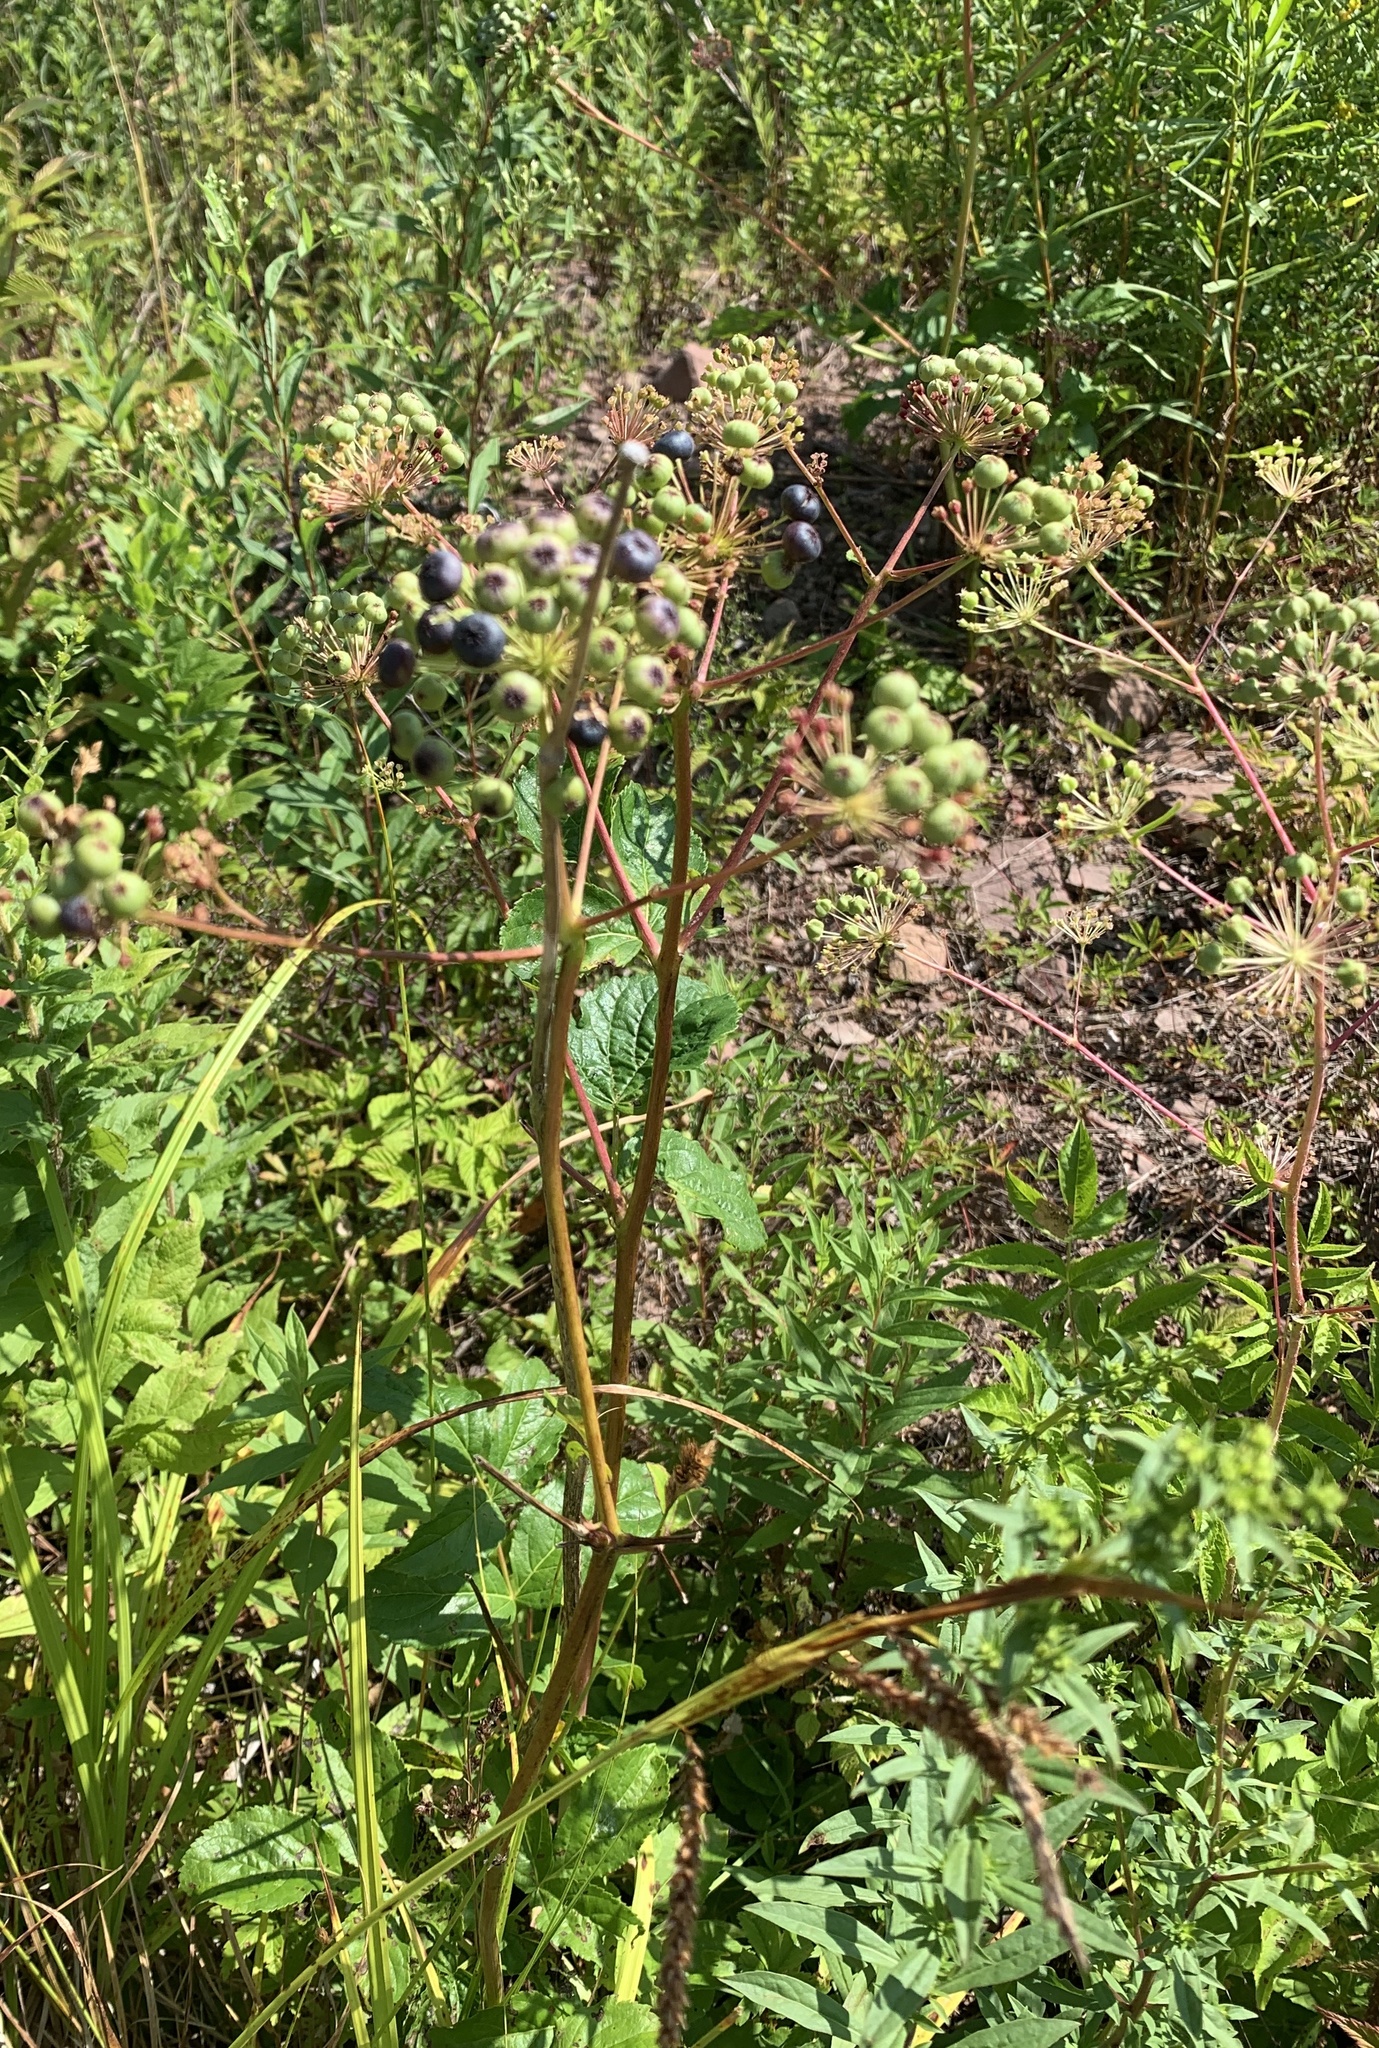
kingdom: Plantae
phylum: Tracheophyta
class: Magnoliopsida
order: Apiales
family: Araliaceae
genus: Aralia
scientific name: Aralia hispida
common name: Bristly sarsaparilla
